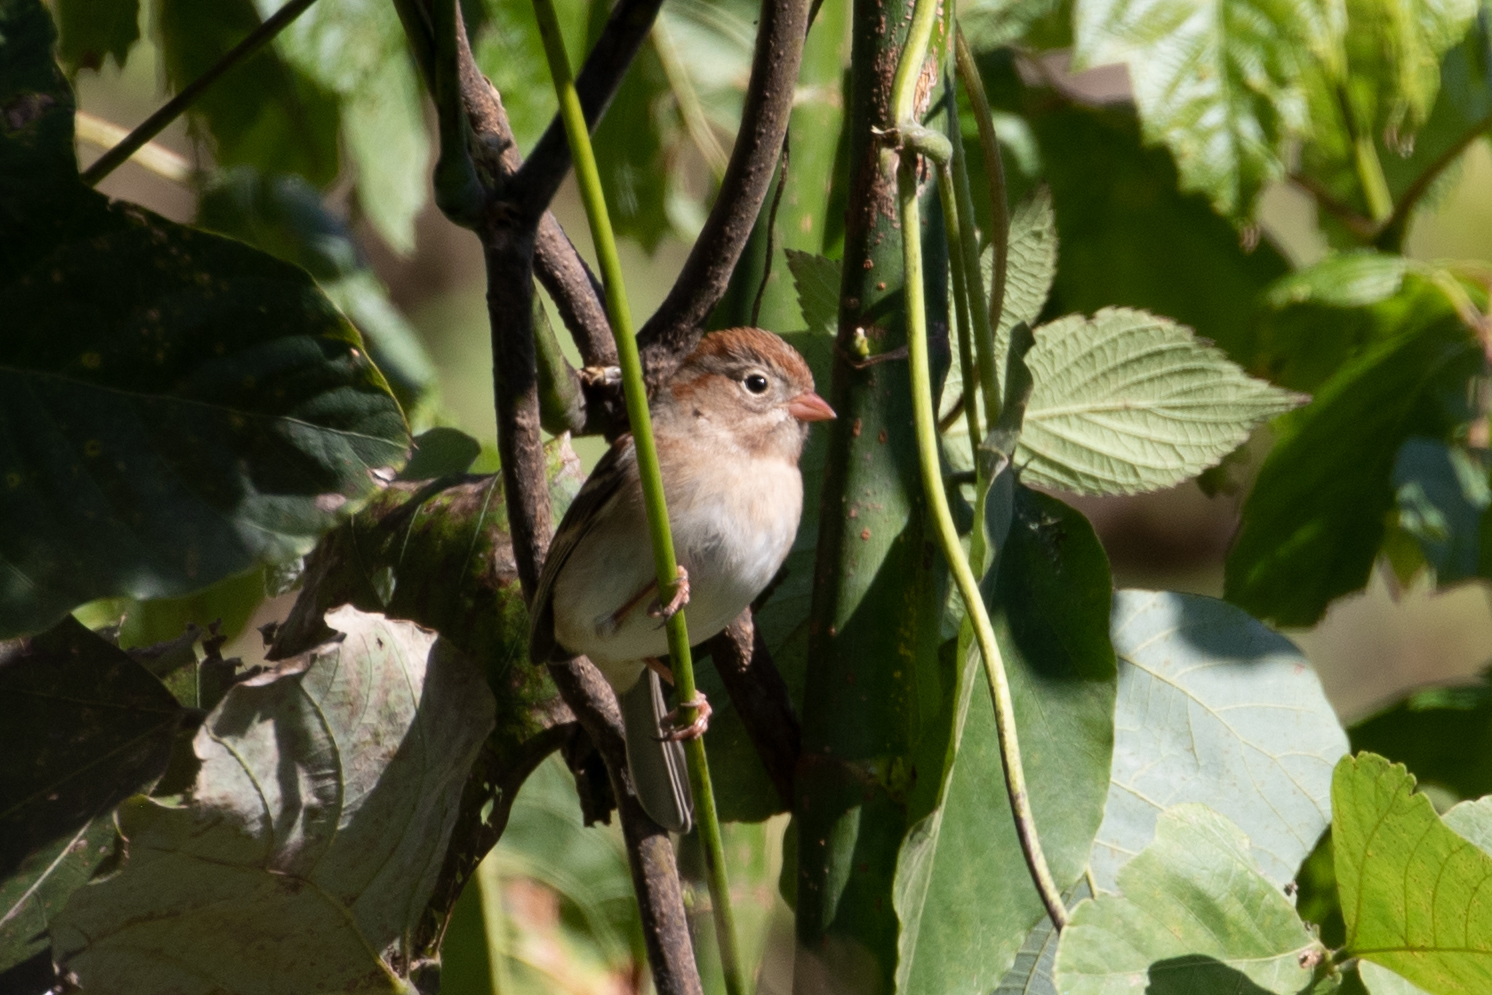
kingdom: Animalia
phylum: Chordata
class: Aves
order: Passeriformes
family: Passerellidae
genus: Spizella
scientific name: Spizella pusilla
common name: Field sparrow
